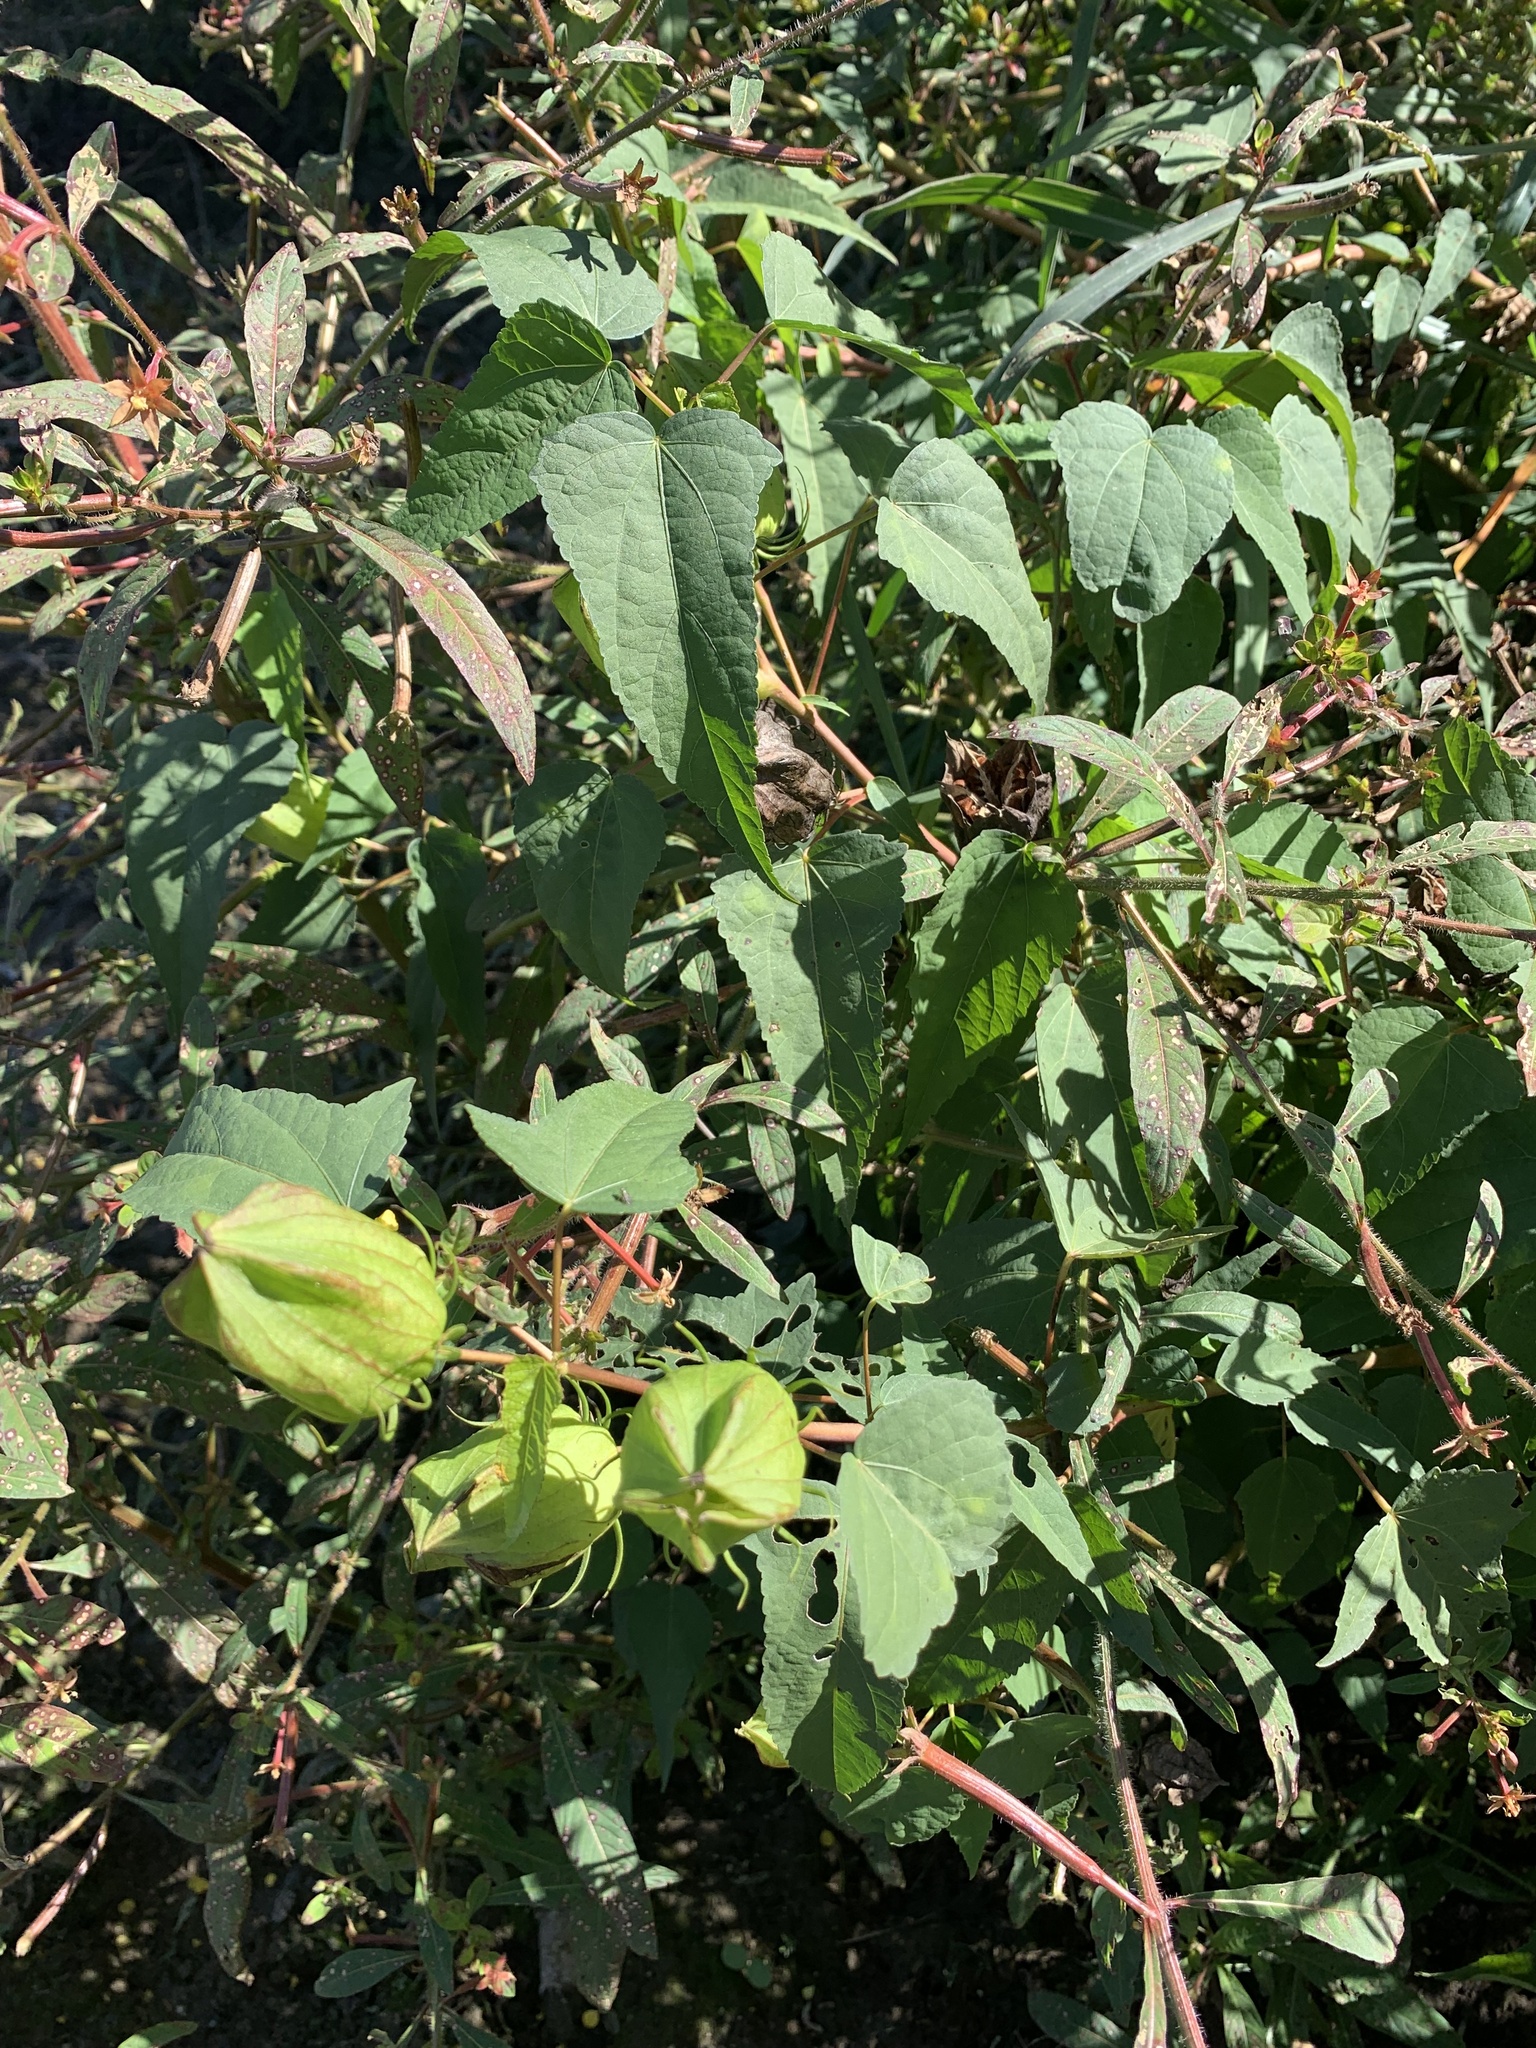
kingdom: Plantae
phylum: Tracheophyta
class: Magnoliopsida
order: Malvales
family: Malvaceae
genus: Hibiscus
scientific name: Hibiscus laevis
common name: Scarlet rose-mallow
